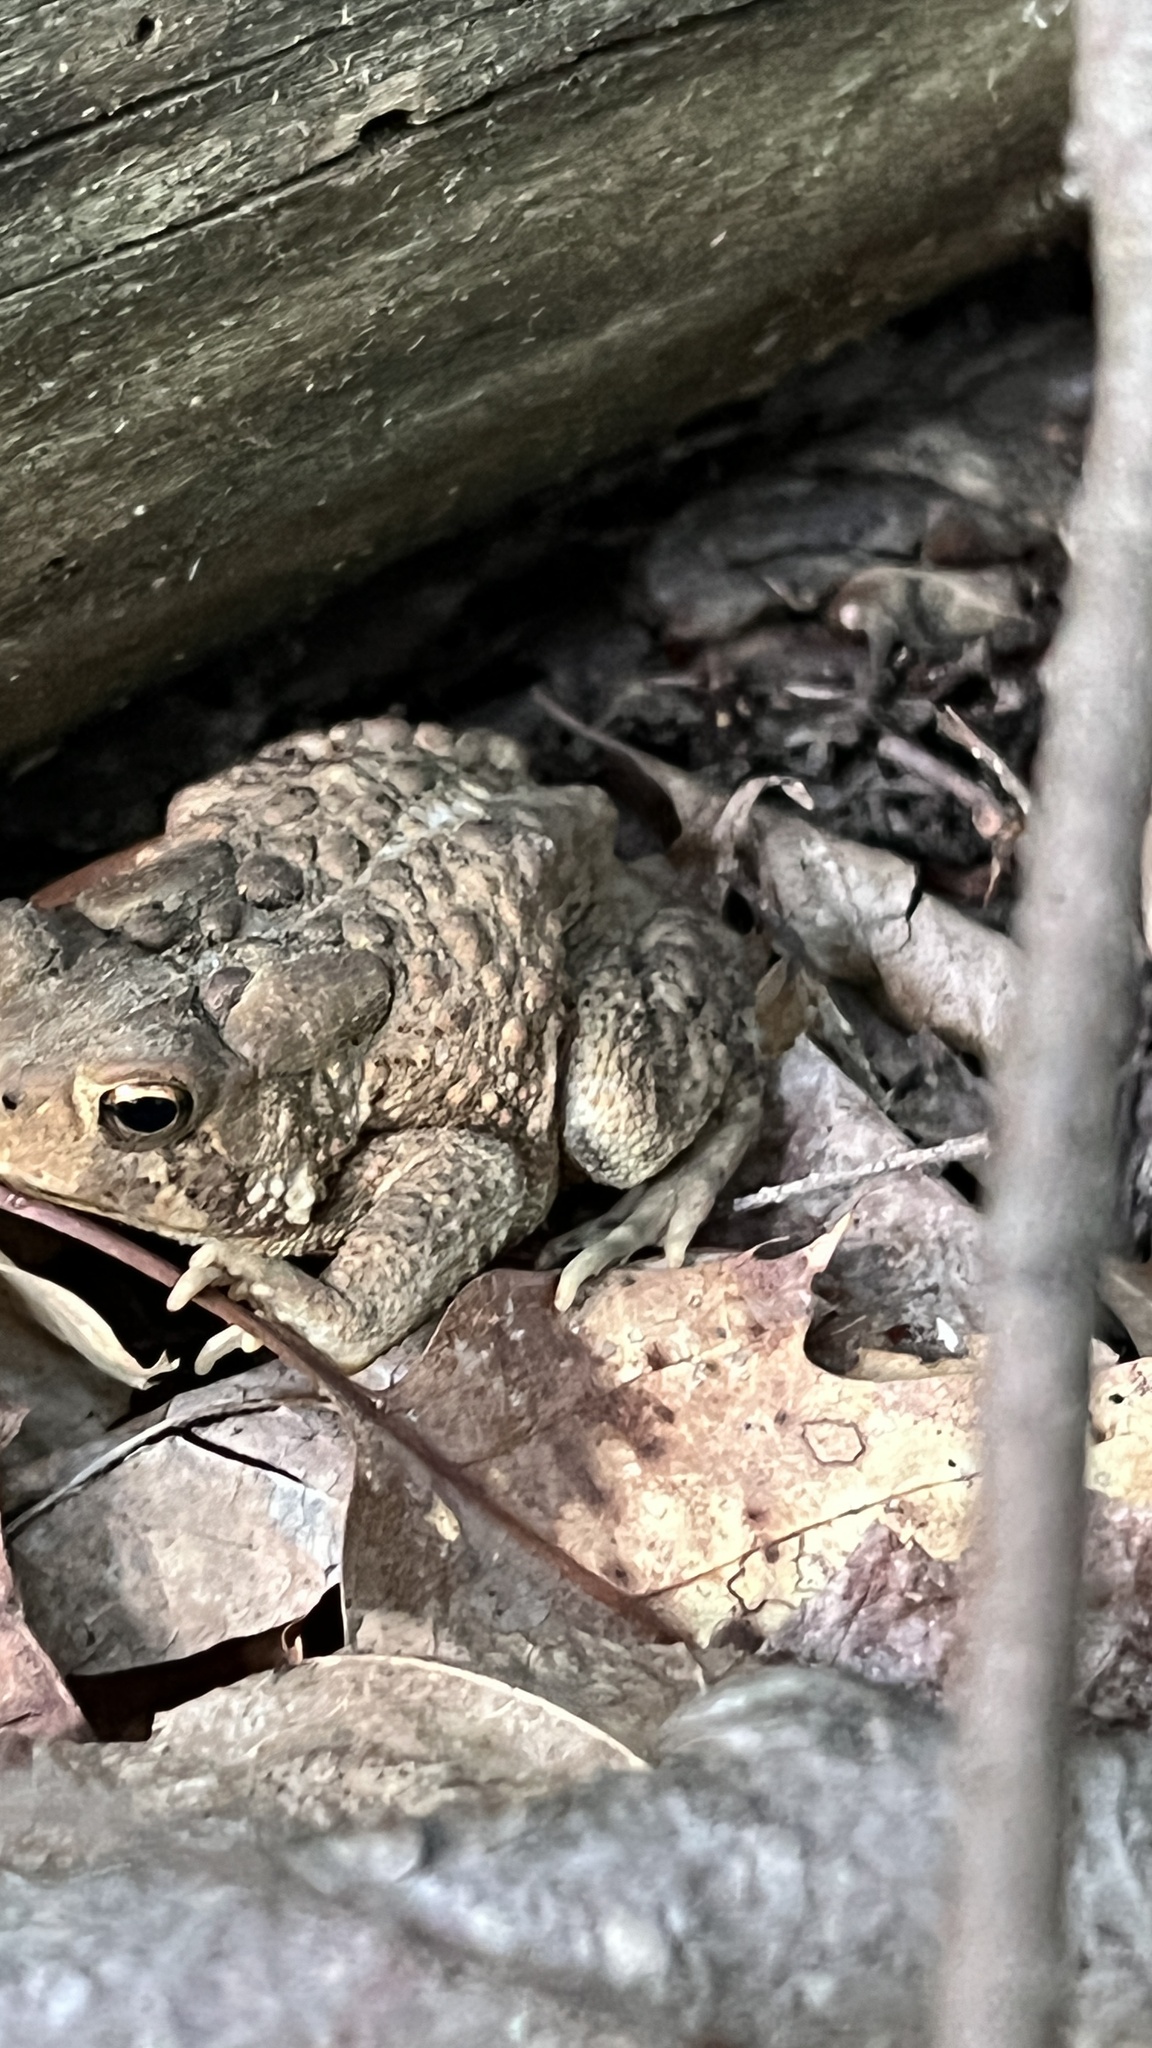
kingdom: Animalia
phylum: Chordata
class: Amphibia
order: Anura
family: Bufonidae
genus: Anaxyrus
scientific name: Anaxyrus americanus
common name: American toad
